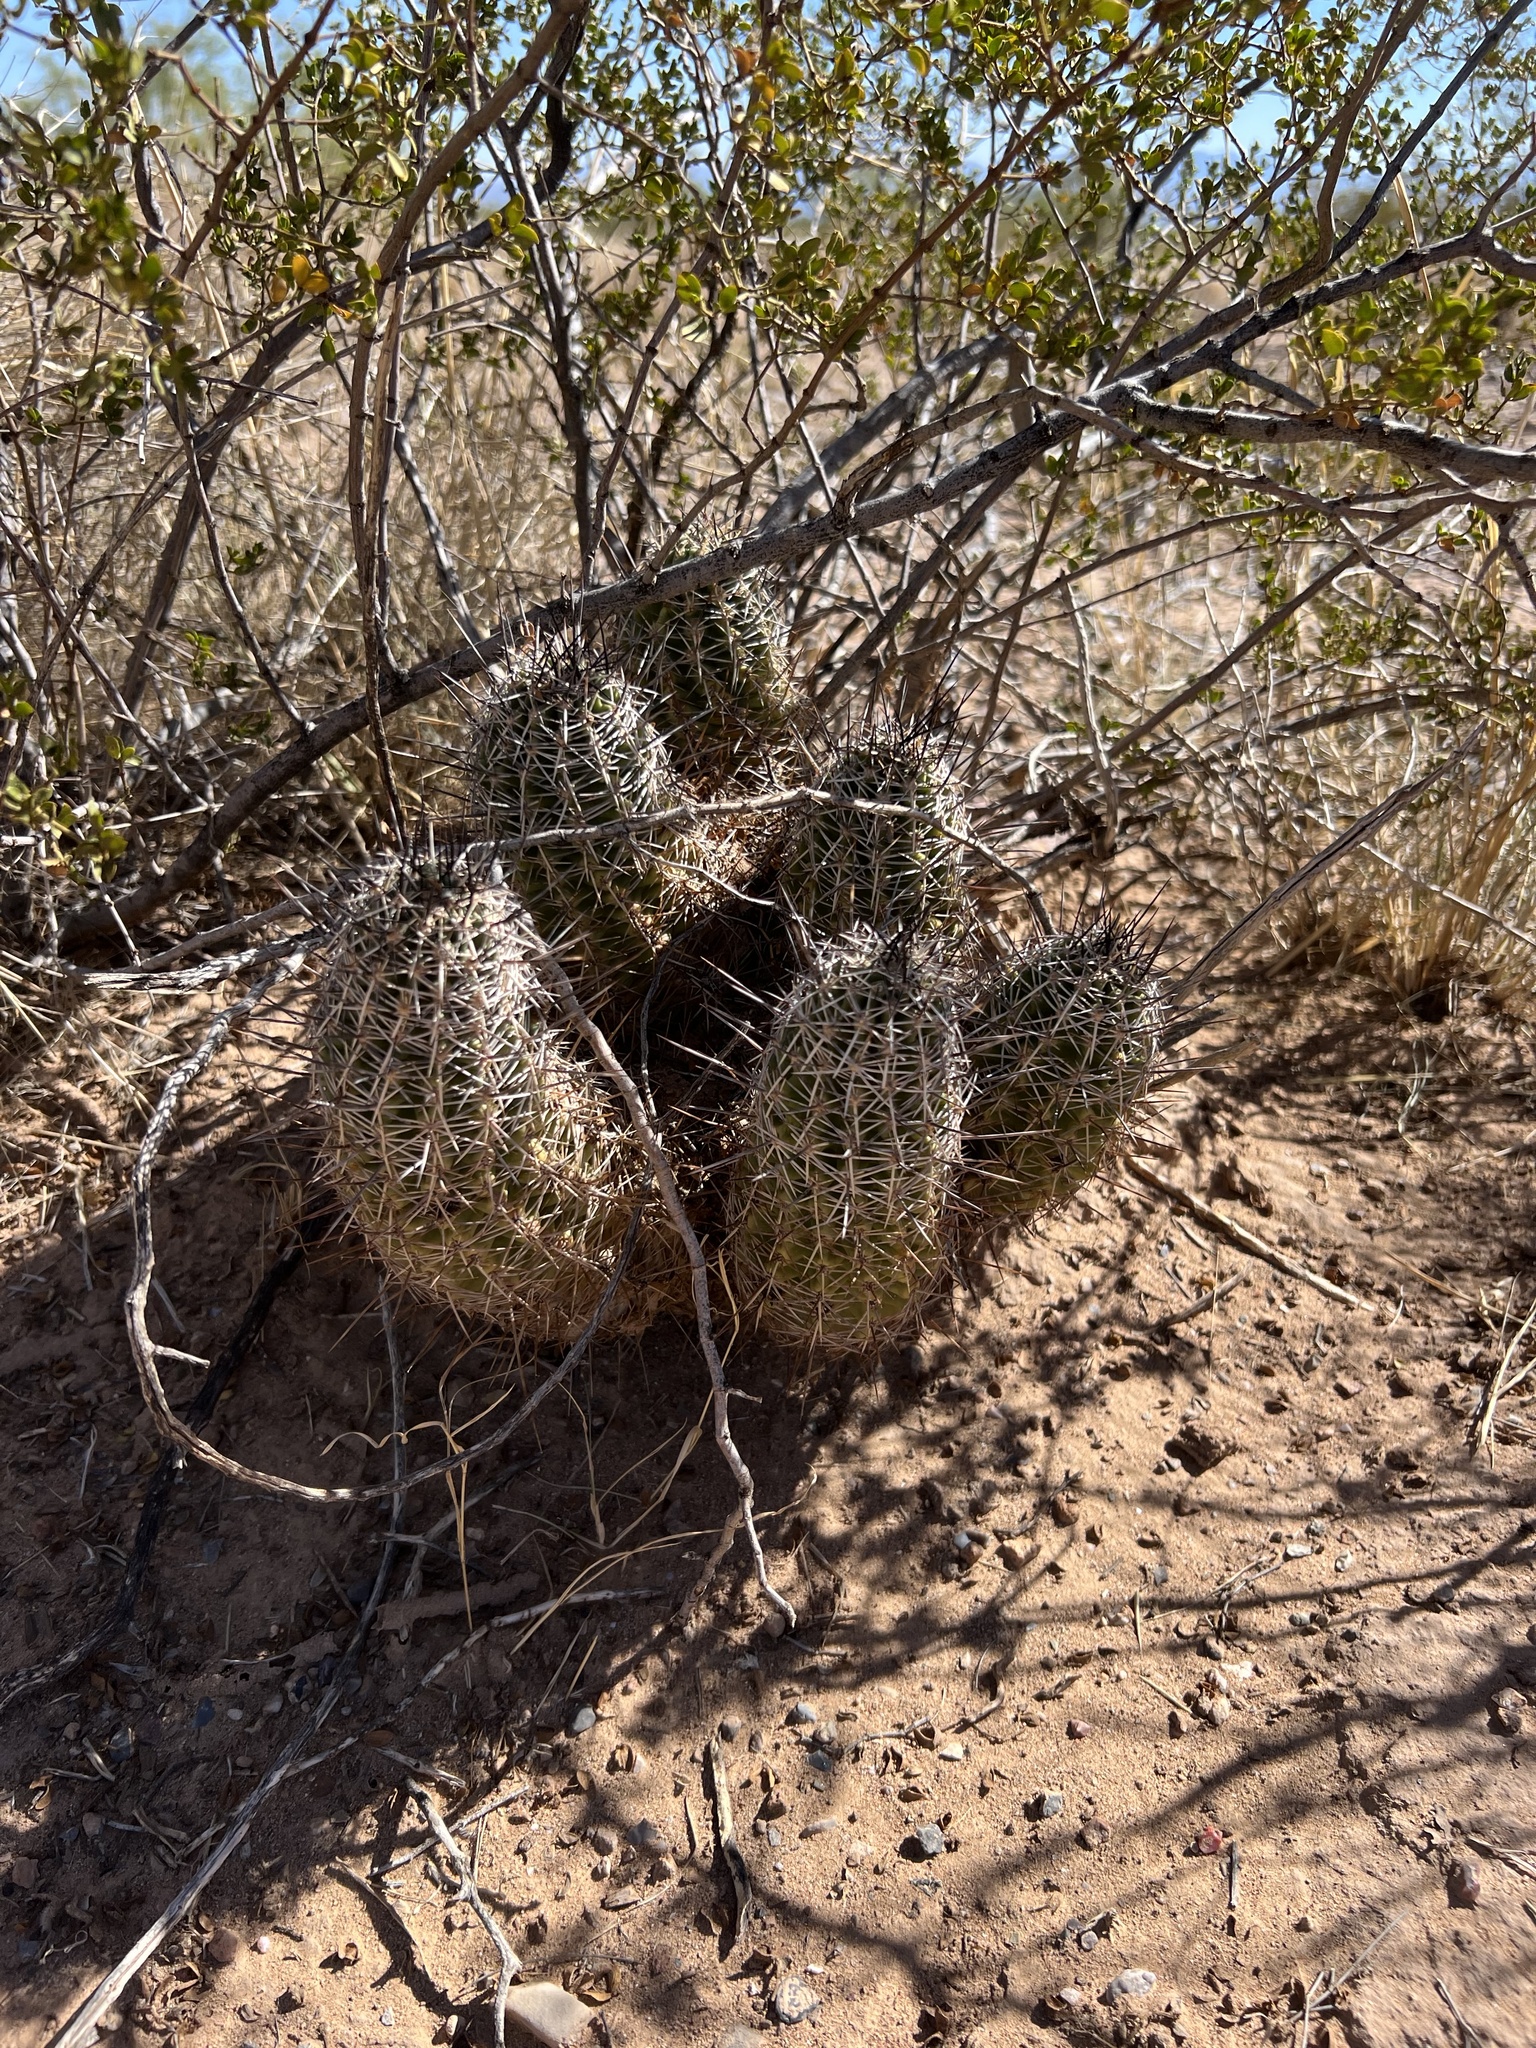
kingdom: Plantae
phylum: Tracheophyta
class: Magnoliopsida
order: Caryophyllales
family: Cactaceae
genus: Echinocereus
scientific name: Echinocereus fendleri
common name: Fendler's hedgehog cactus
